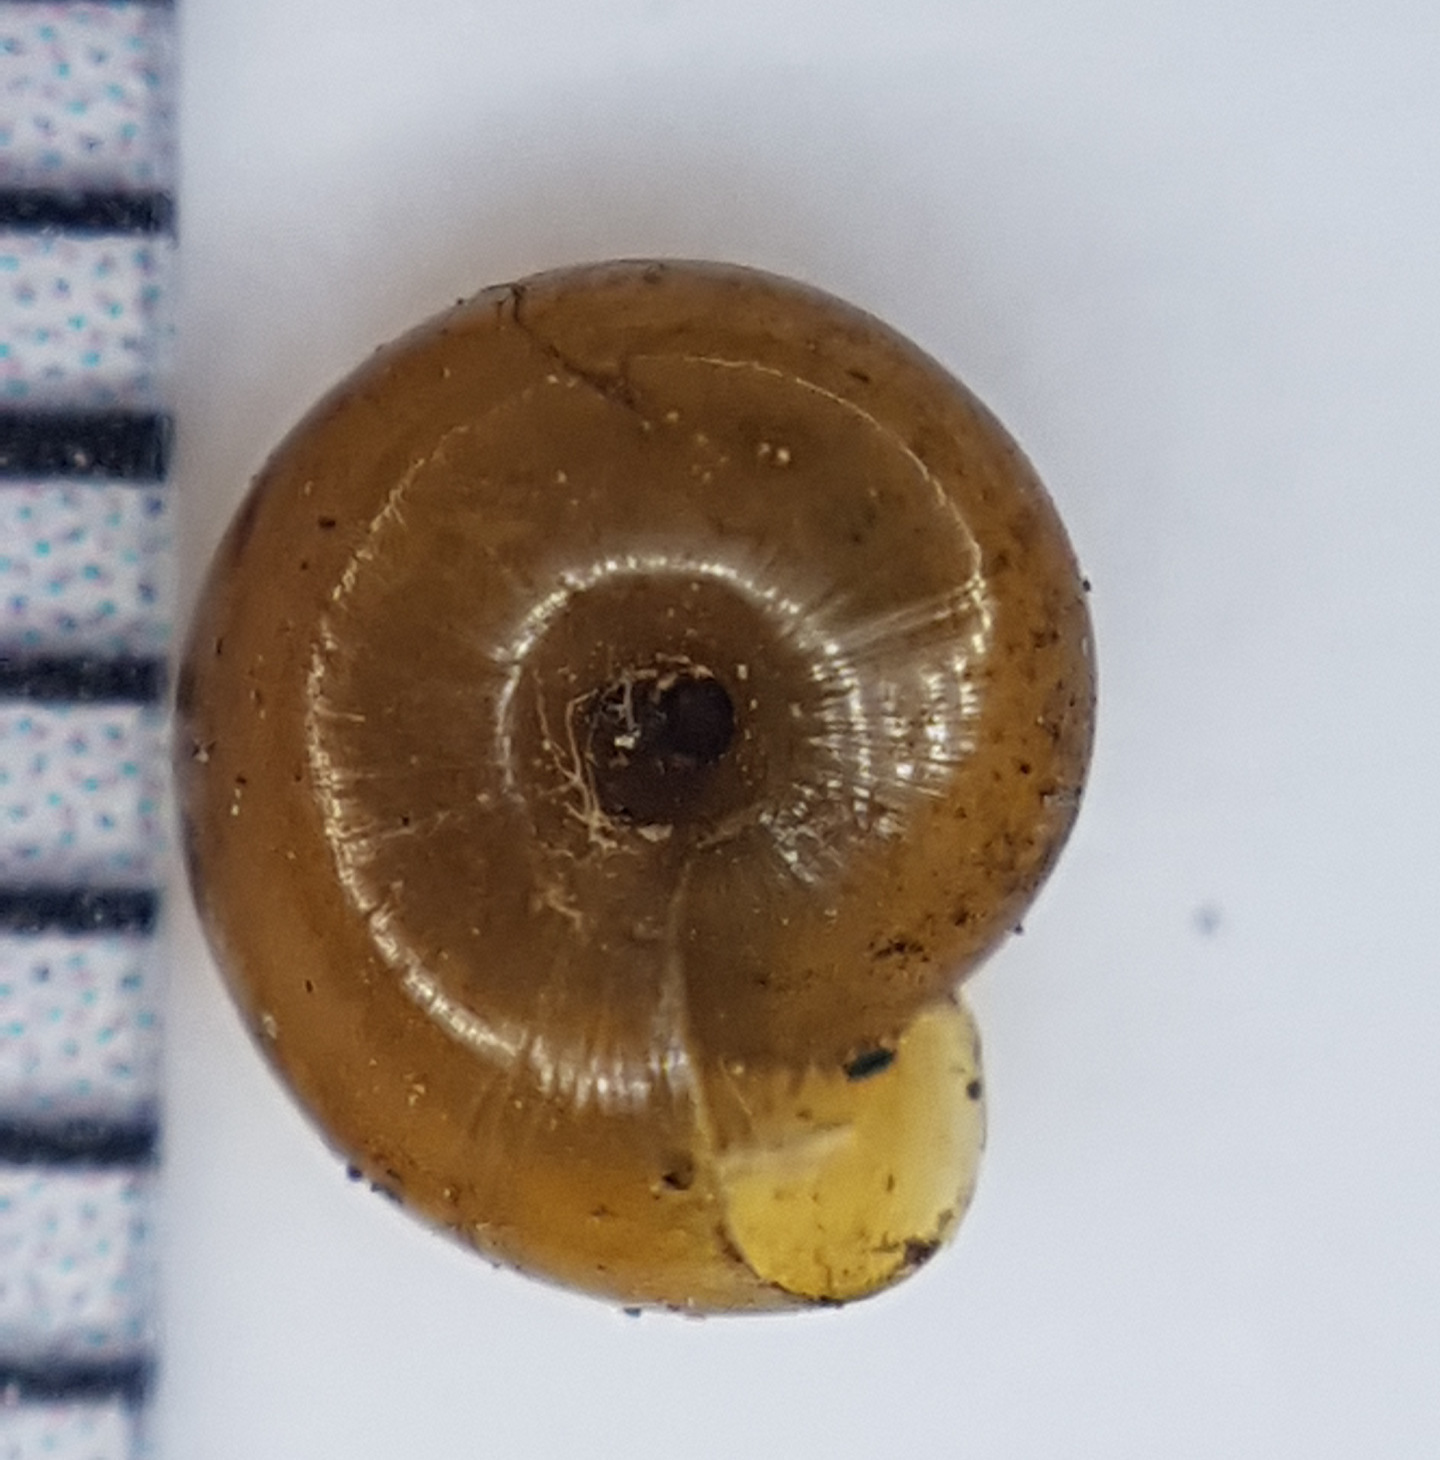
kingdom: Animalia
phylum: Mollusca
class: Gastropoda
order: Stylommatophora
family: Gastrodontidae
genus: Zonitoides
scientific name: Zonitoides nitidus
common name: Shiny glass snail
